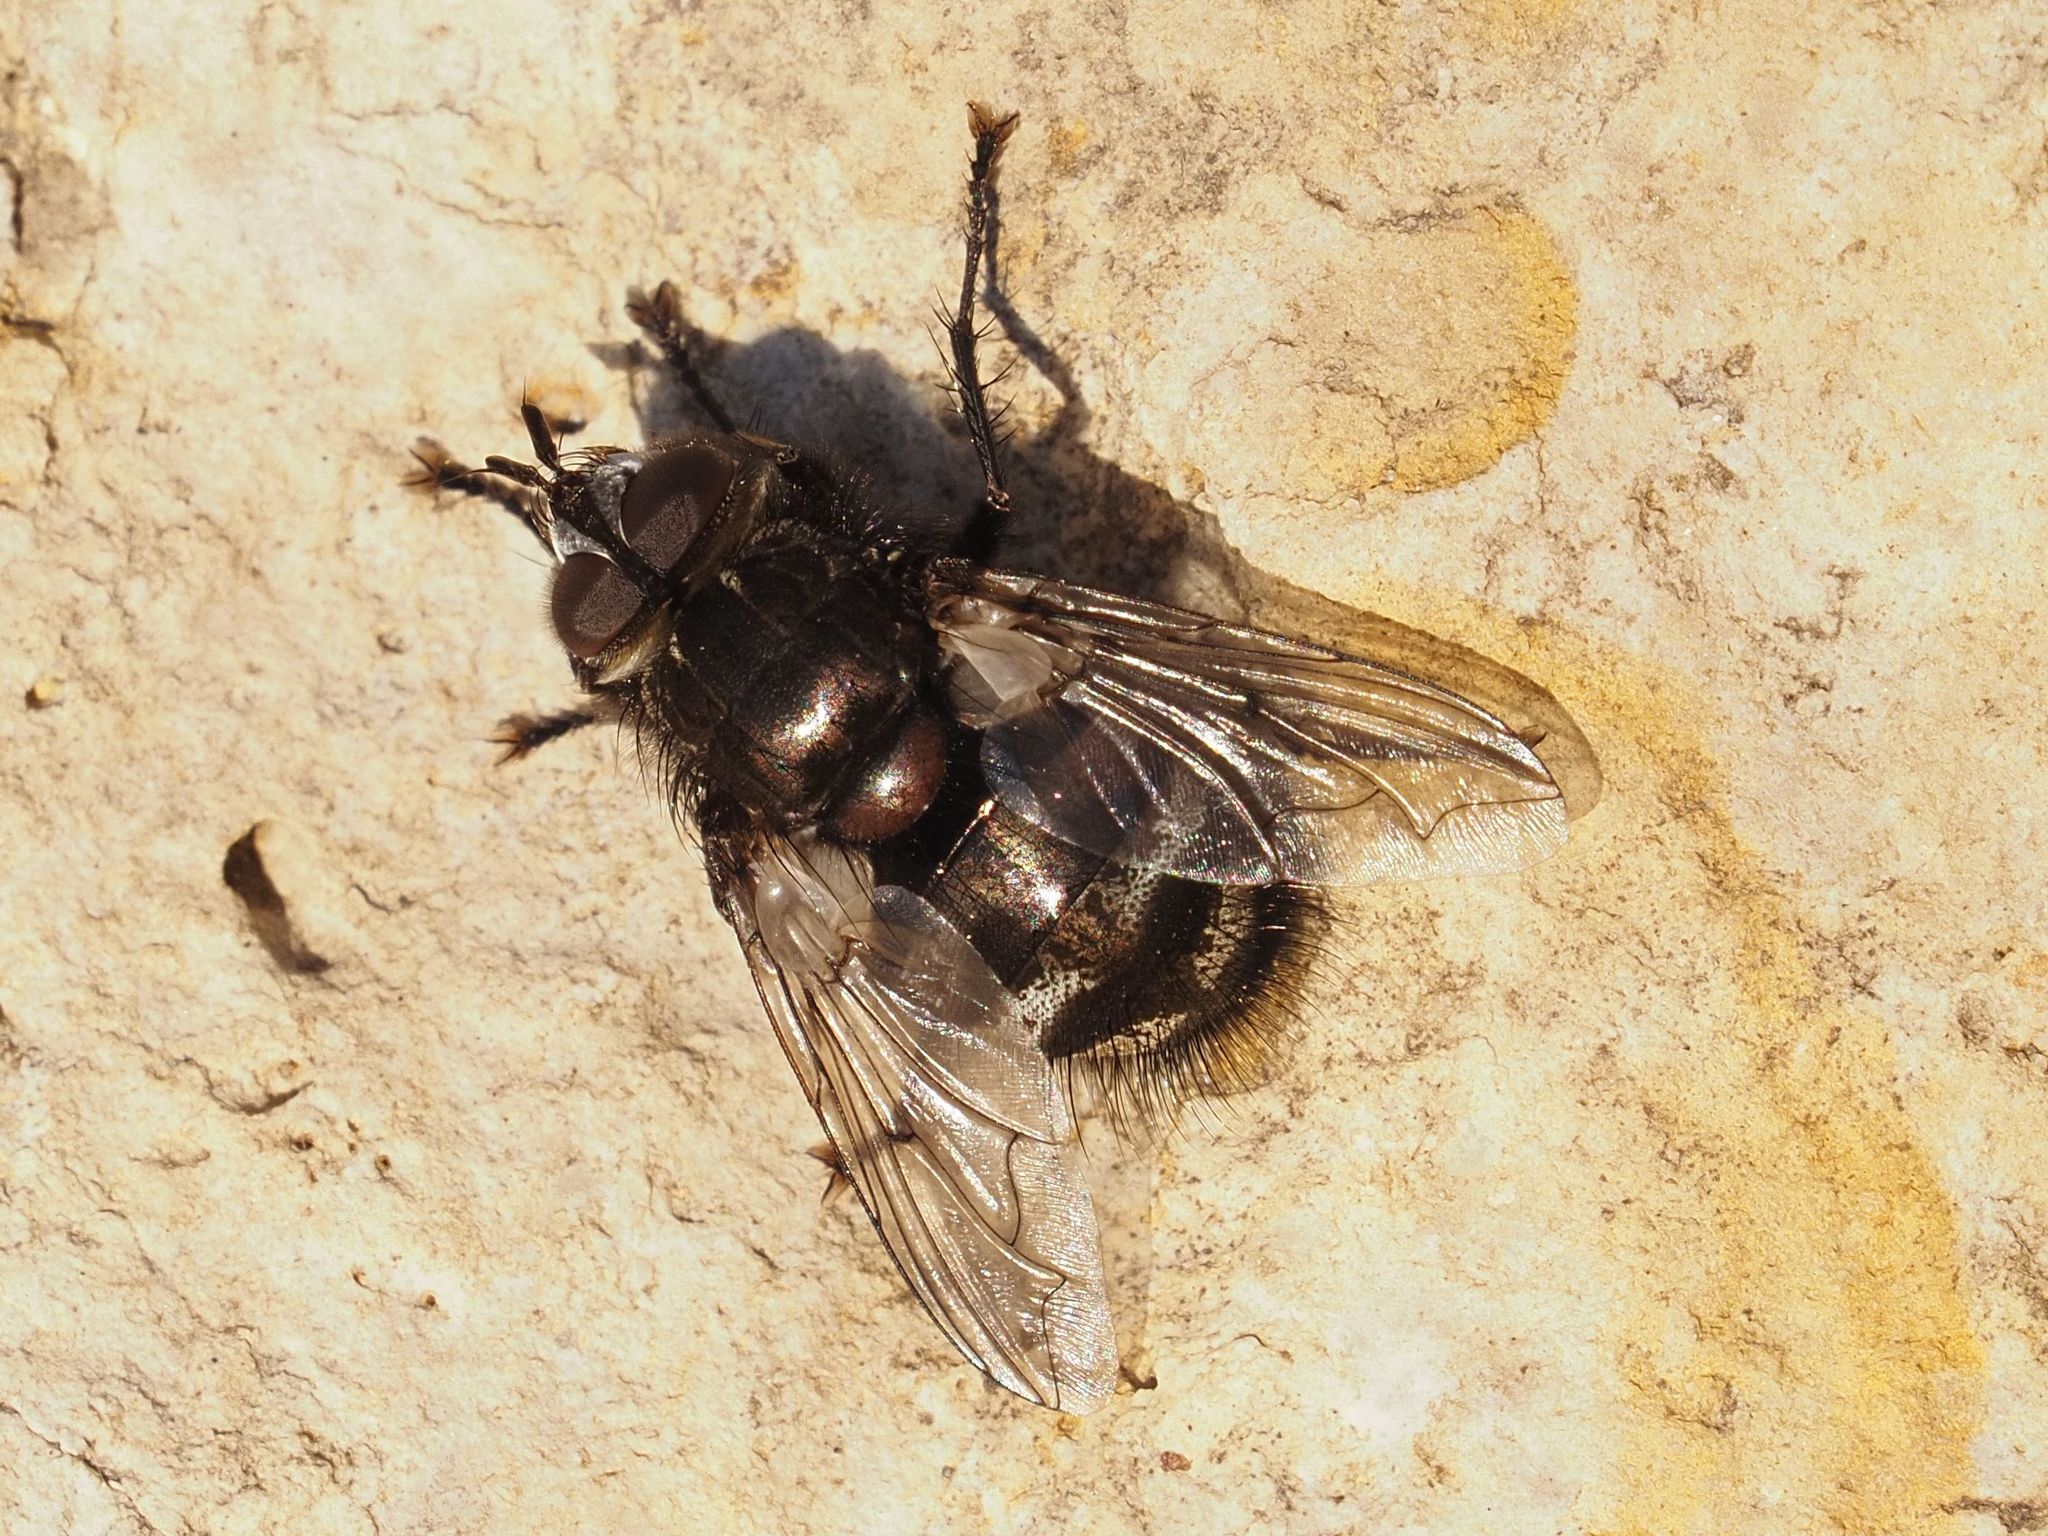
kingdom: Animalia
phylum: Arthropoda
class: Insecta
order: Diptera
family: Tachinidae
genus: Panzeria
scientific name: Panzeria puparum
